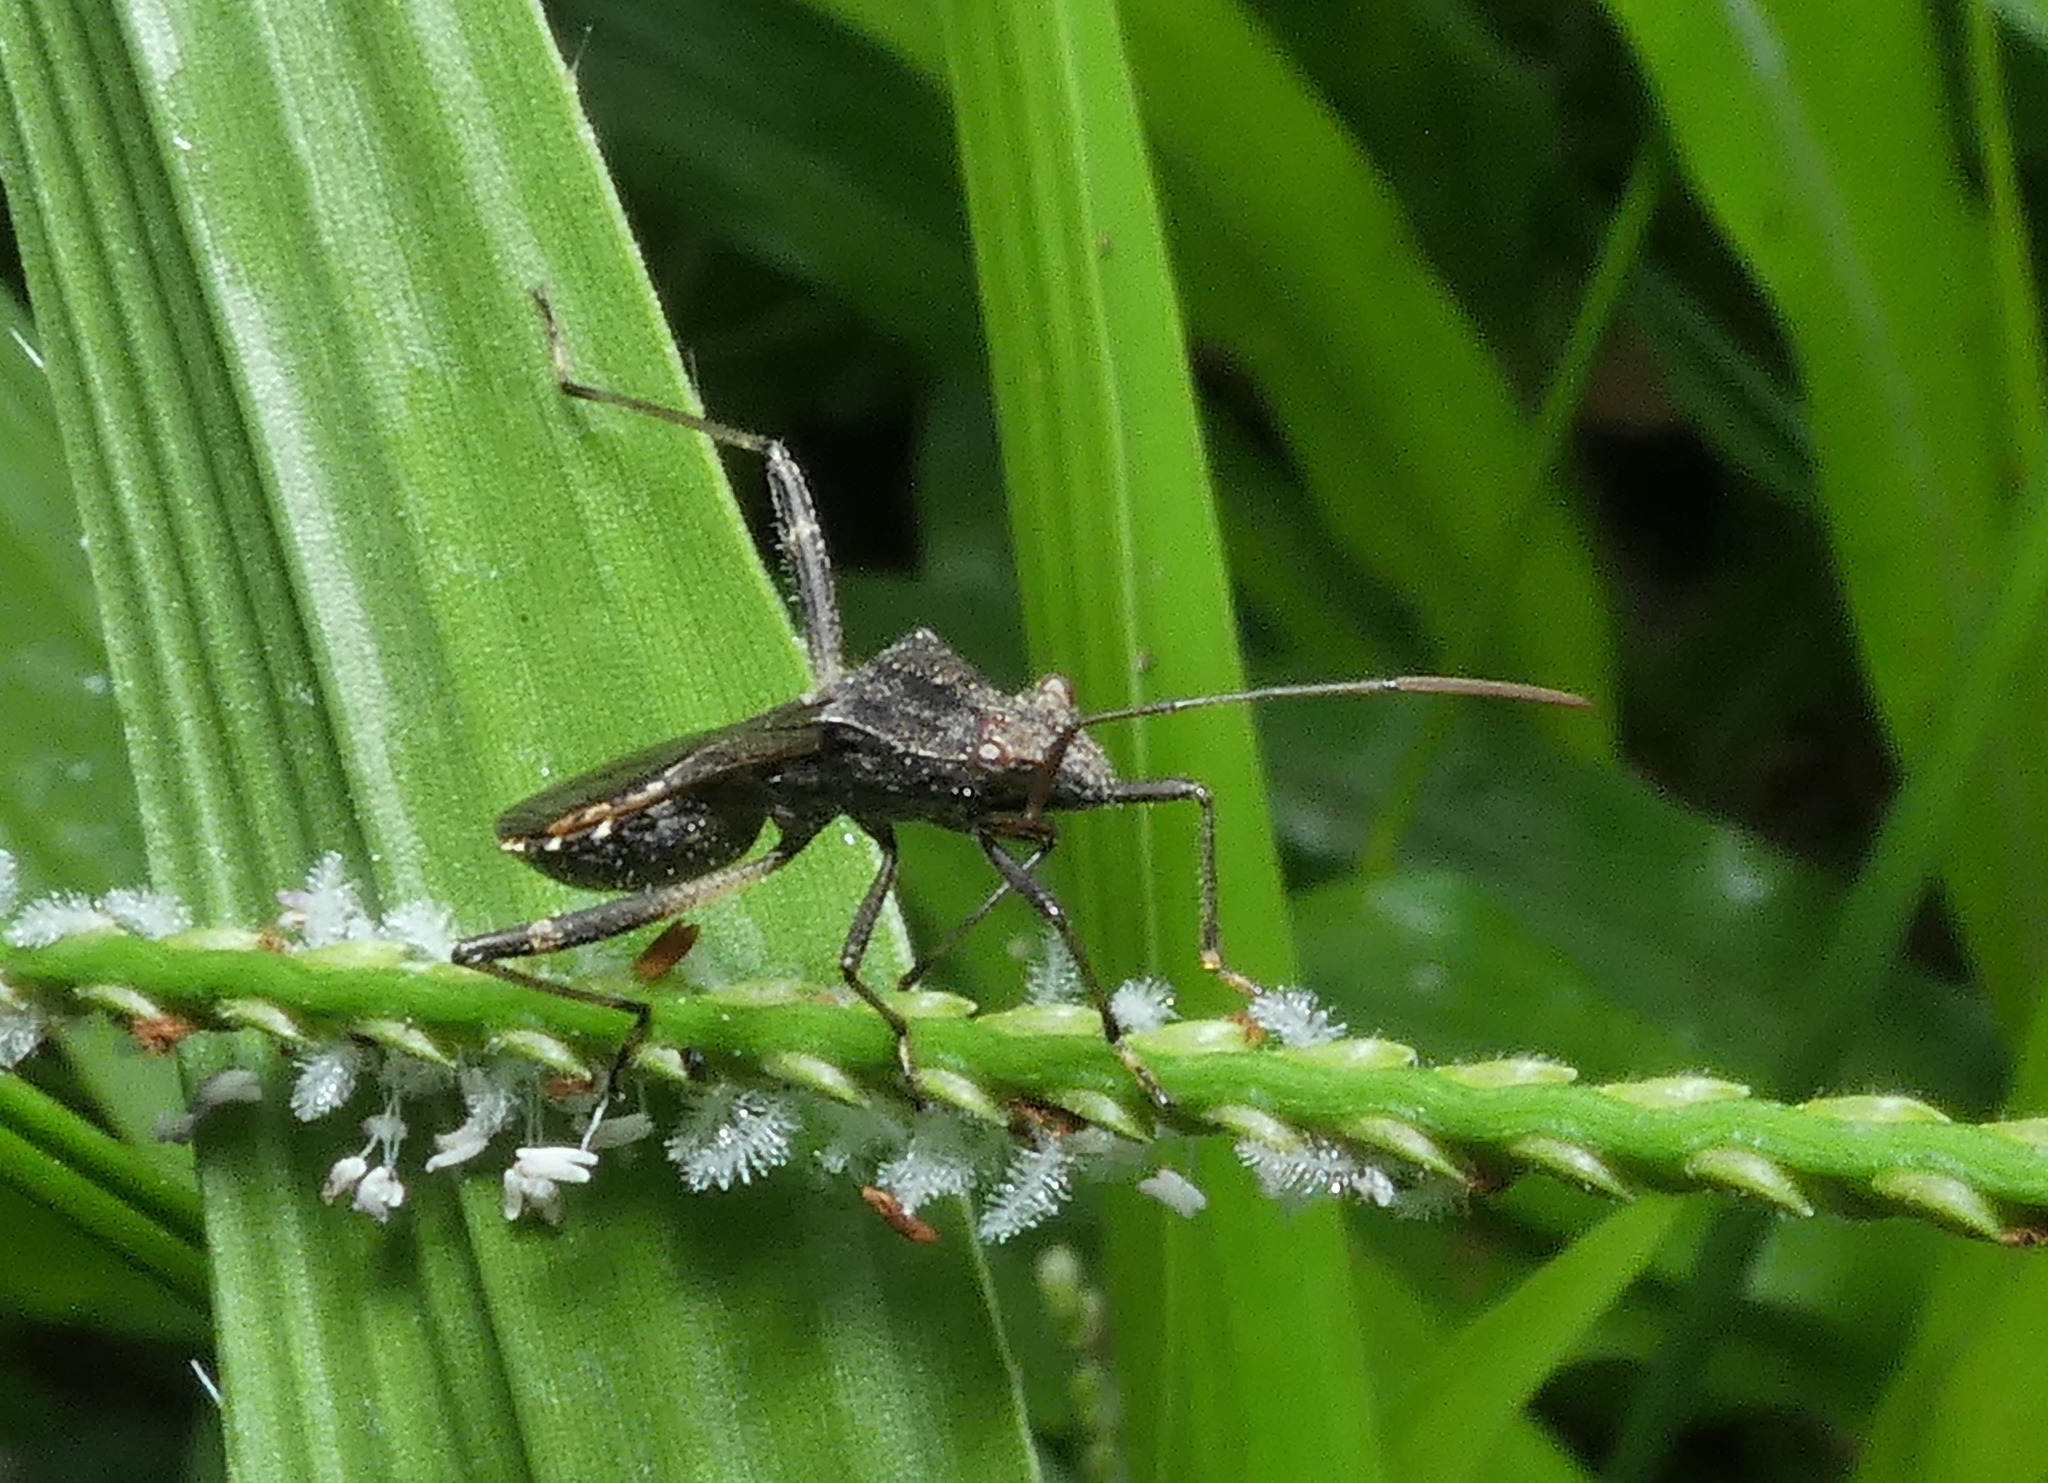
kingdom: Animalia
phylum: Arthropoda
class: Insecta
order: Hemiptera
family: Alydidae
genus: Neomegalotomus
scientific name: Neomegalotomus parvus
